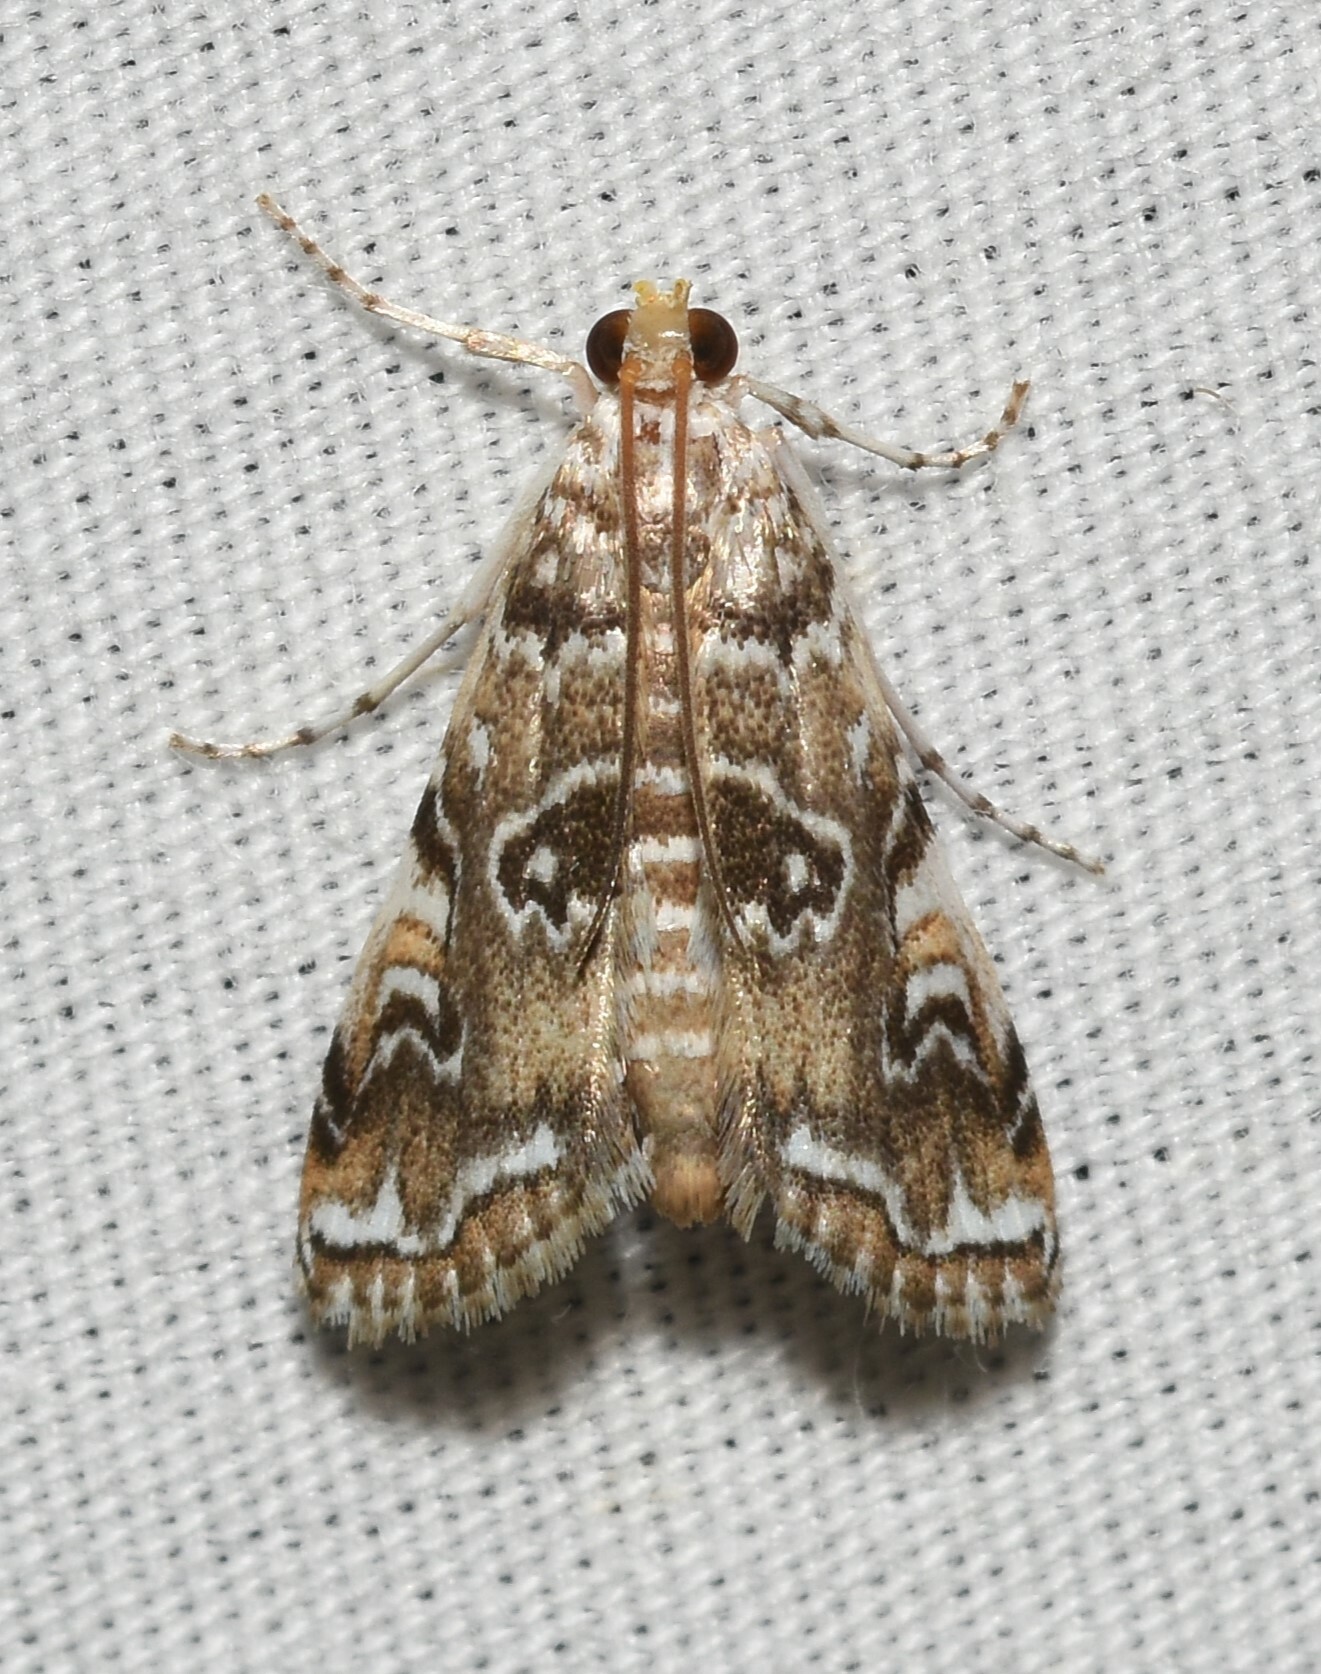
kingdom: Animalia
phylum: Arthropoda
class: Insecta
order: Lepidoptera
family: Crambidae
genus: Elophila
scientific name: Elophila gyralis
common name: Waterlily borer moth
